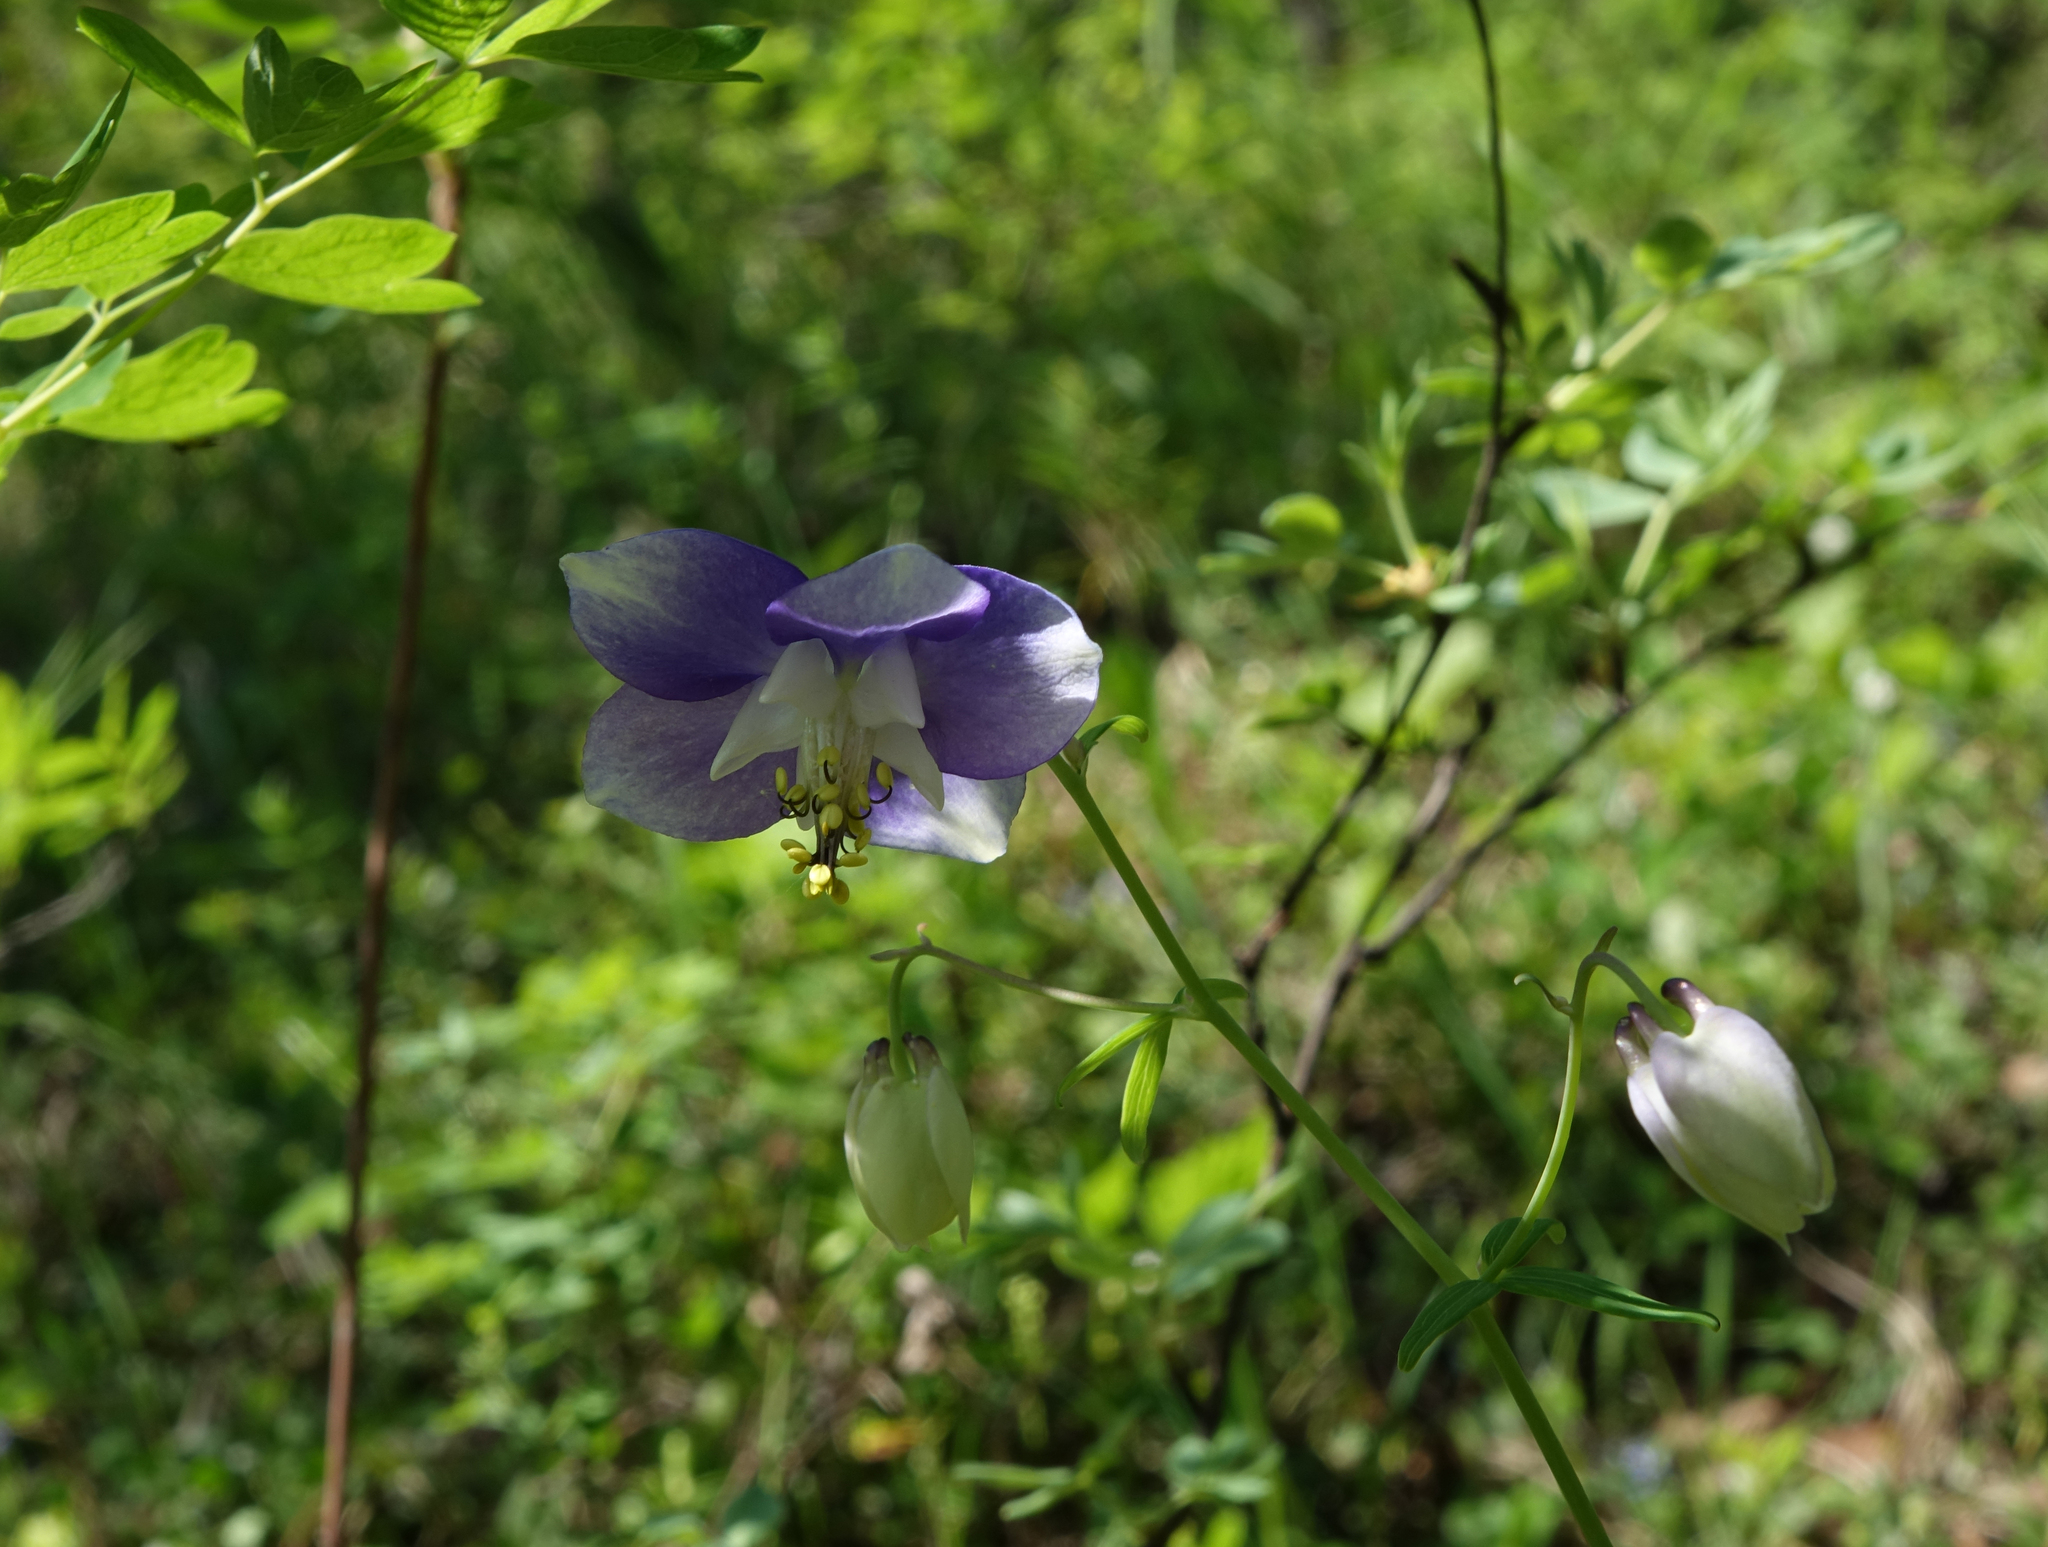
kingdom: Plantae
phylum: Tracheophyta
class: Magnoliopsida
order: Ranunculales
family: Ranunculaceae
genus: Aquilegia
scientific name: Aquilegia parviflora
